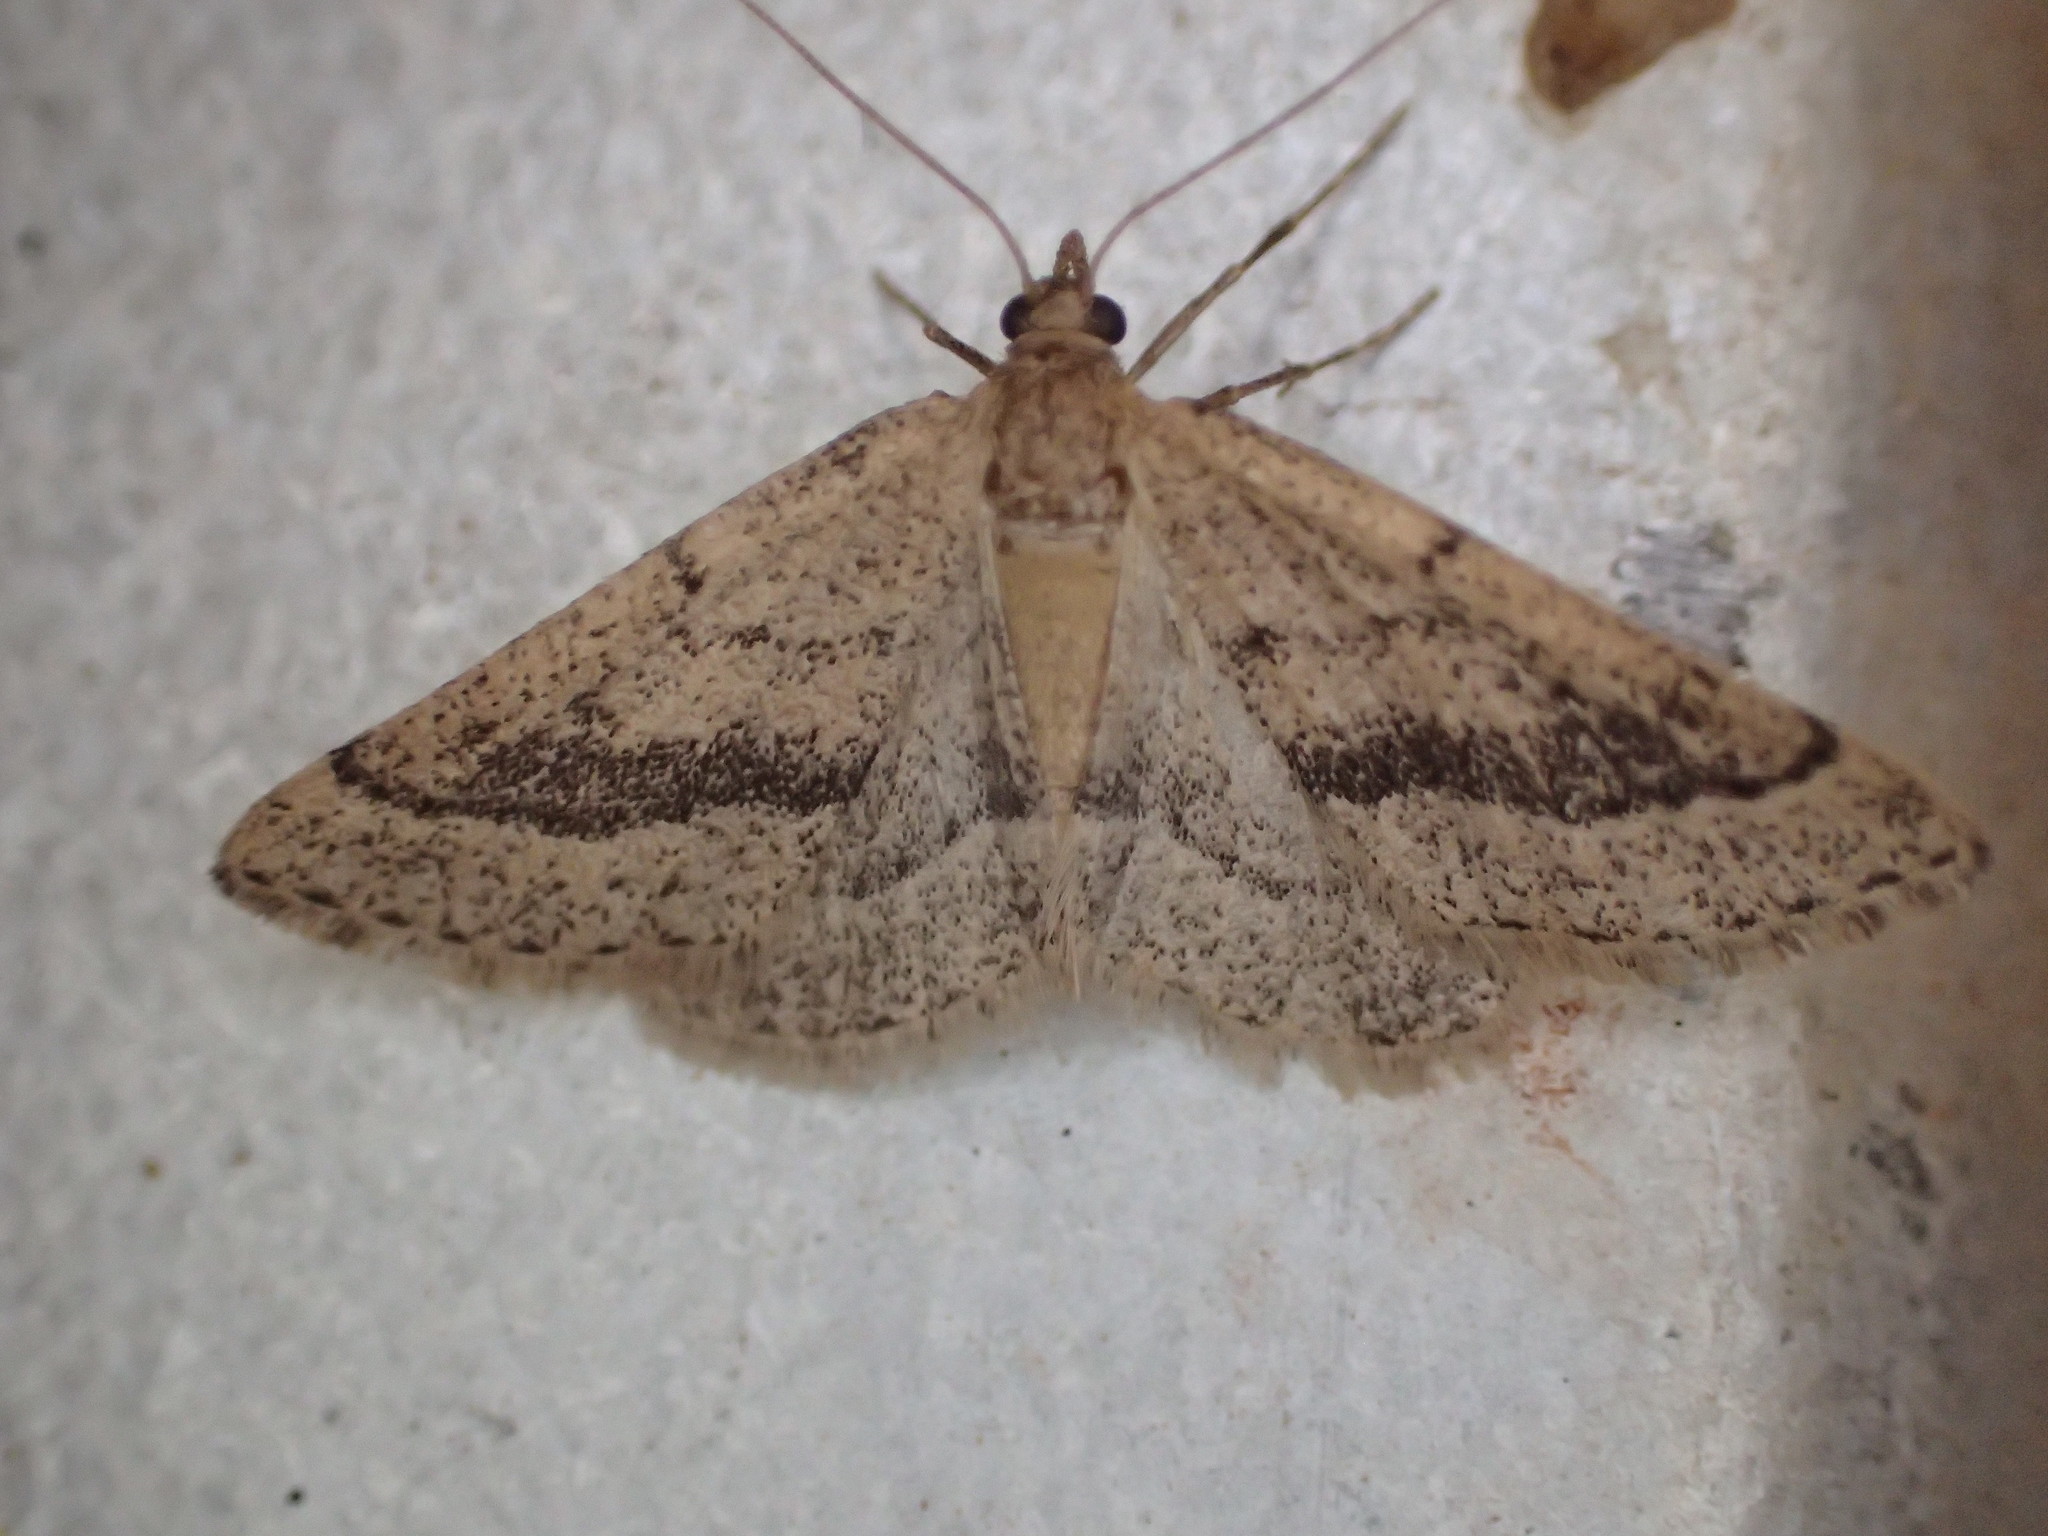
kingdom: Animalia
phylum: Arthropoda
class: Insecta
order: Lepidoptera
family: Geometridae
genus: Aglossophanes
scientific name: Aglossophanes adoxima
